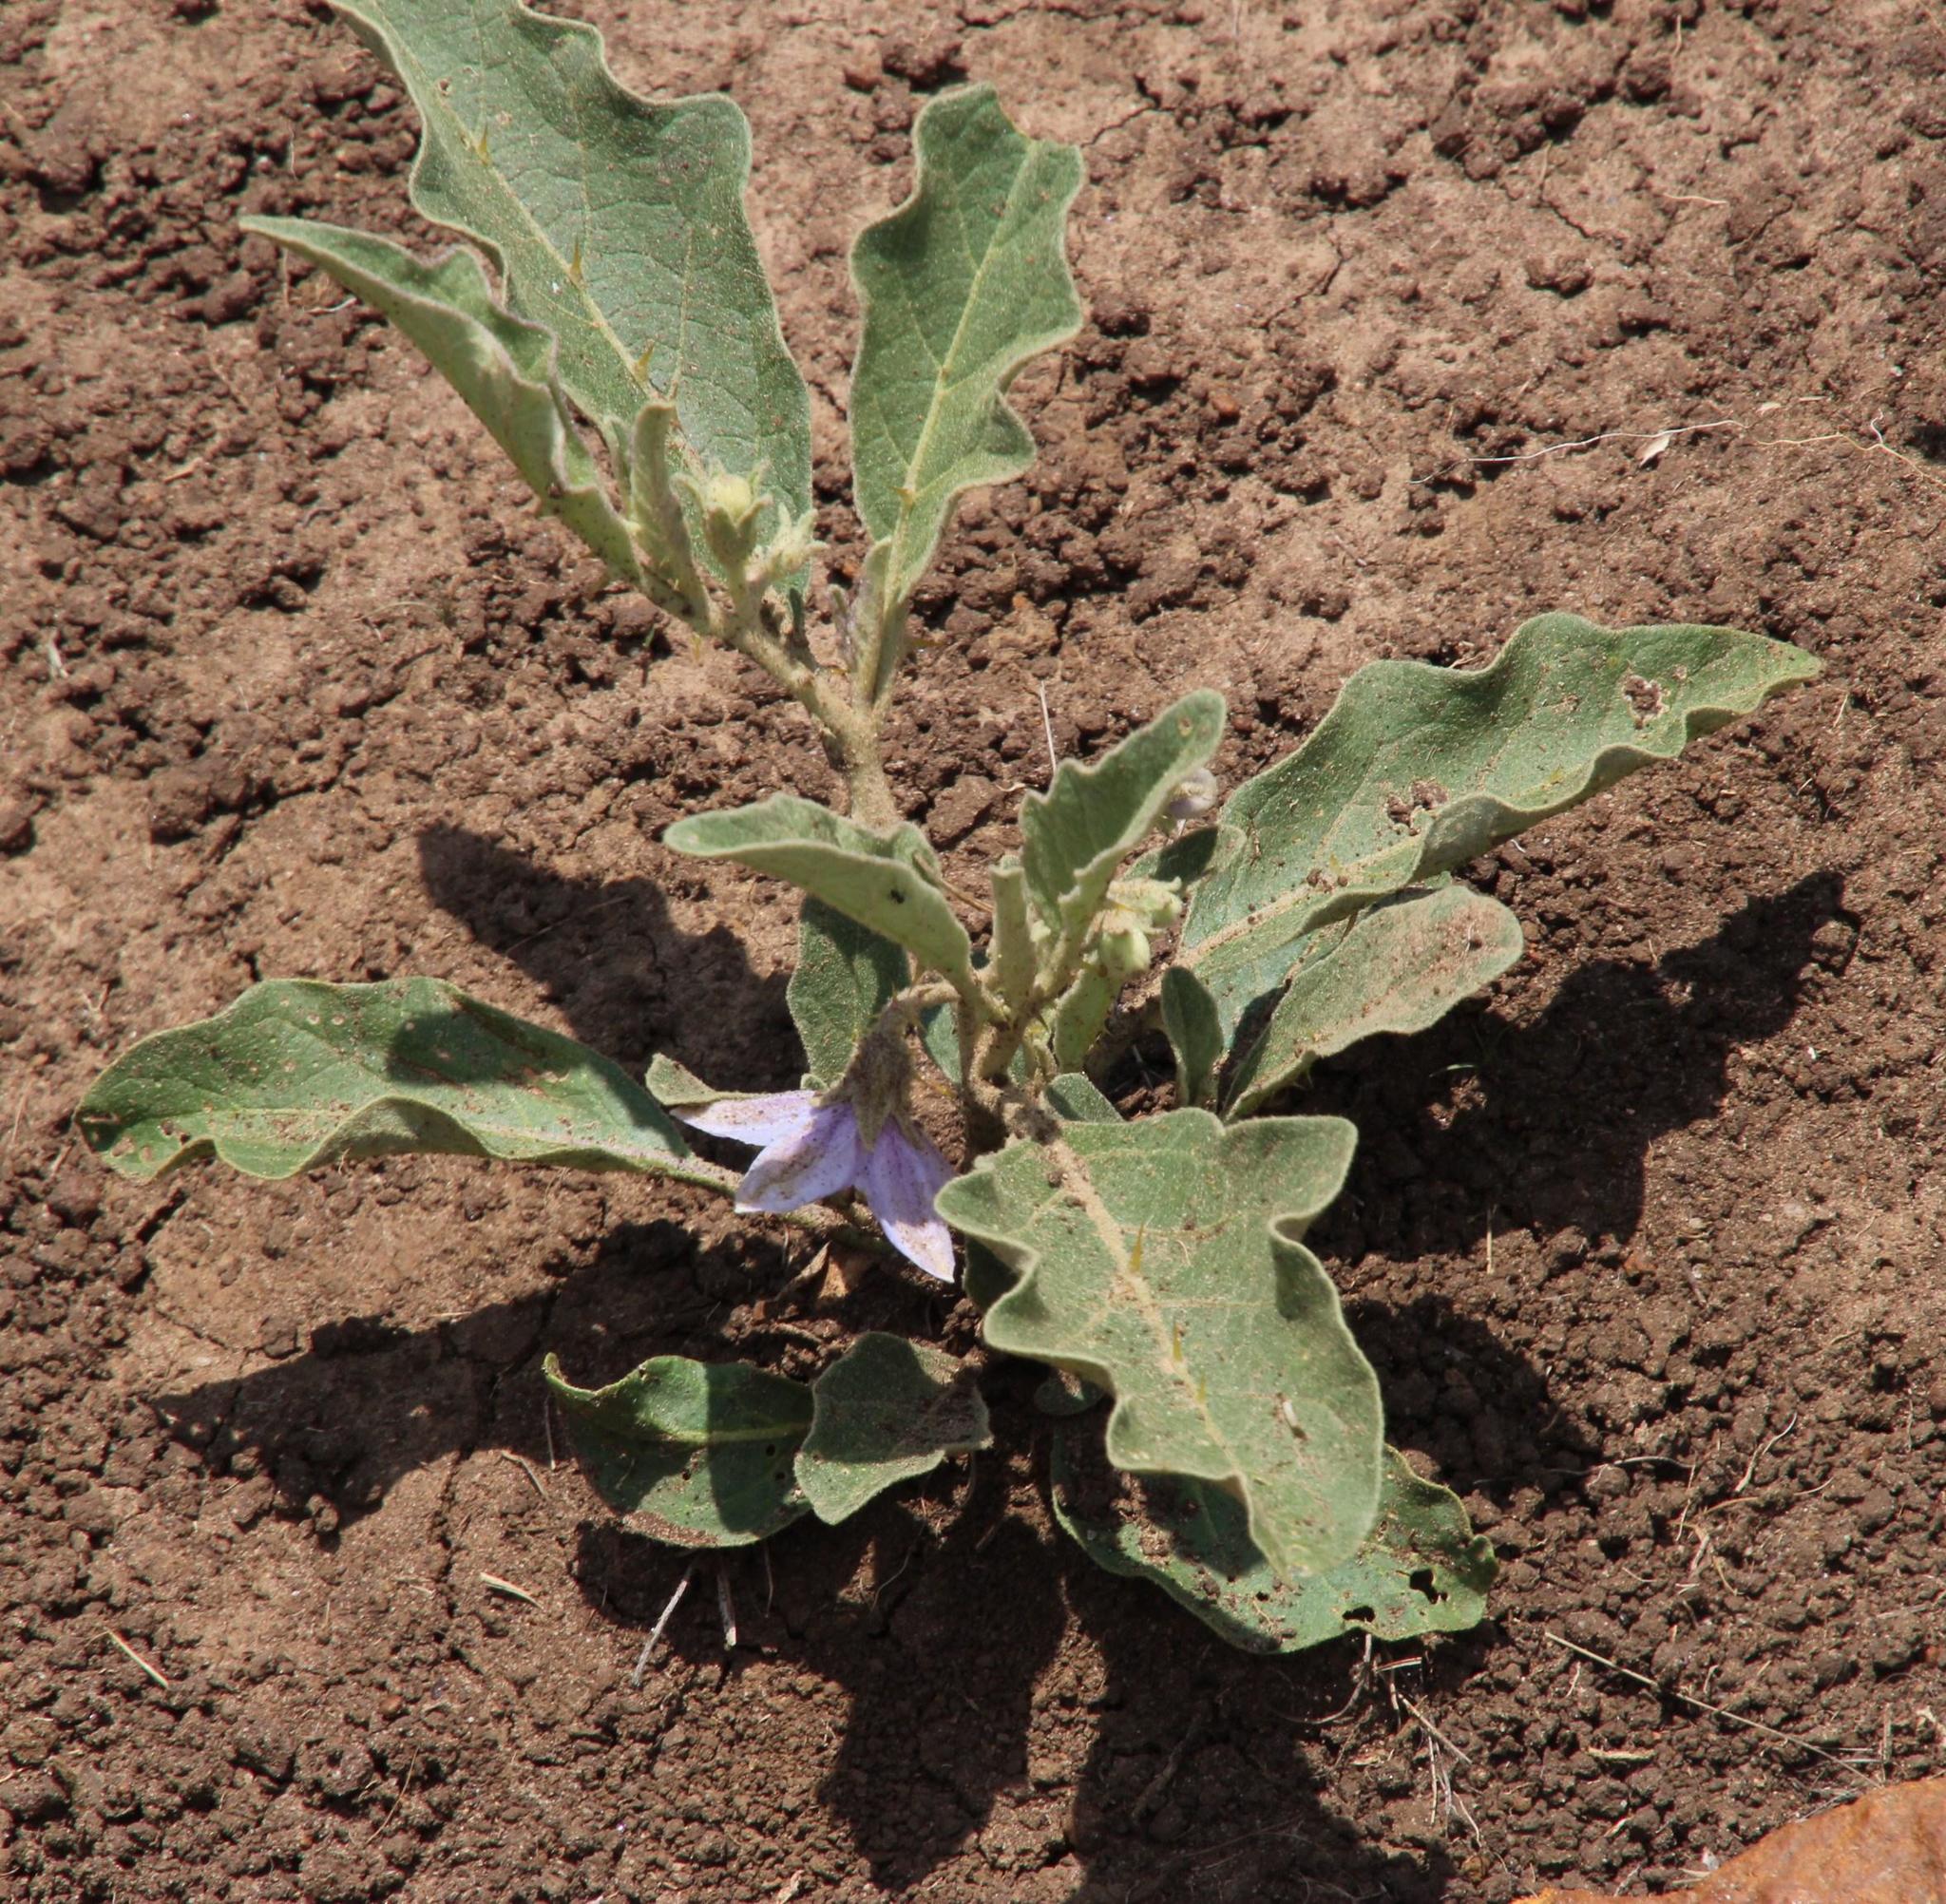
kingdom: Plantae
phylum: Tracheophyta
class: Magnoliopsida
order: Solanales
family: Solanaceae
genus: Solanum
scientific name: Solanum lichtensteinii
